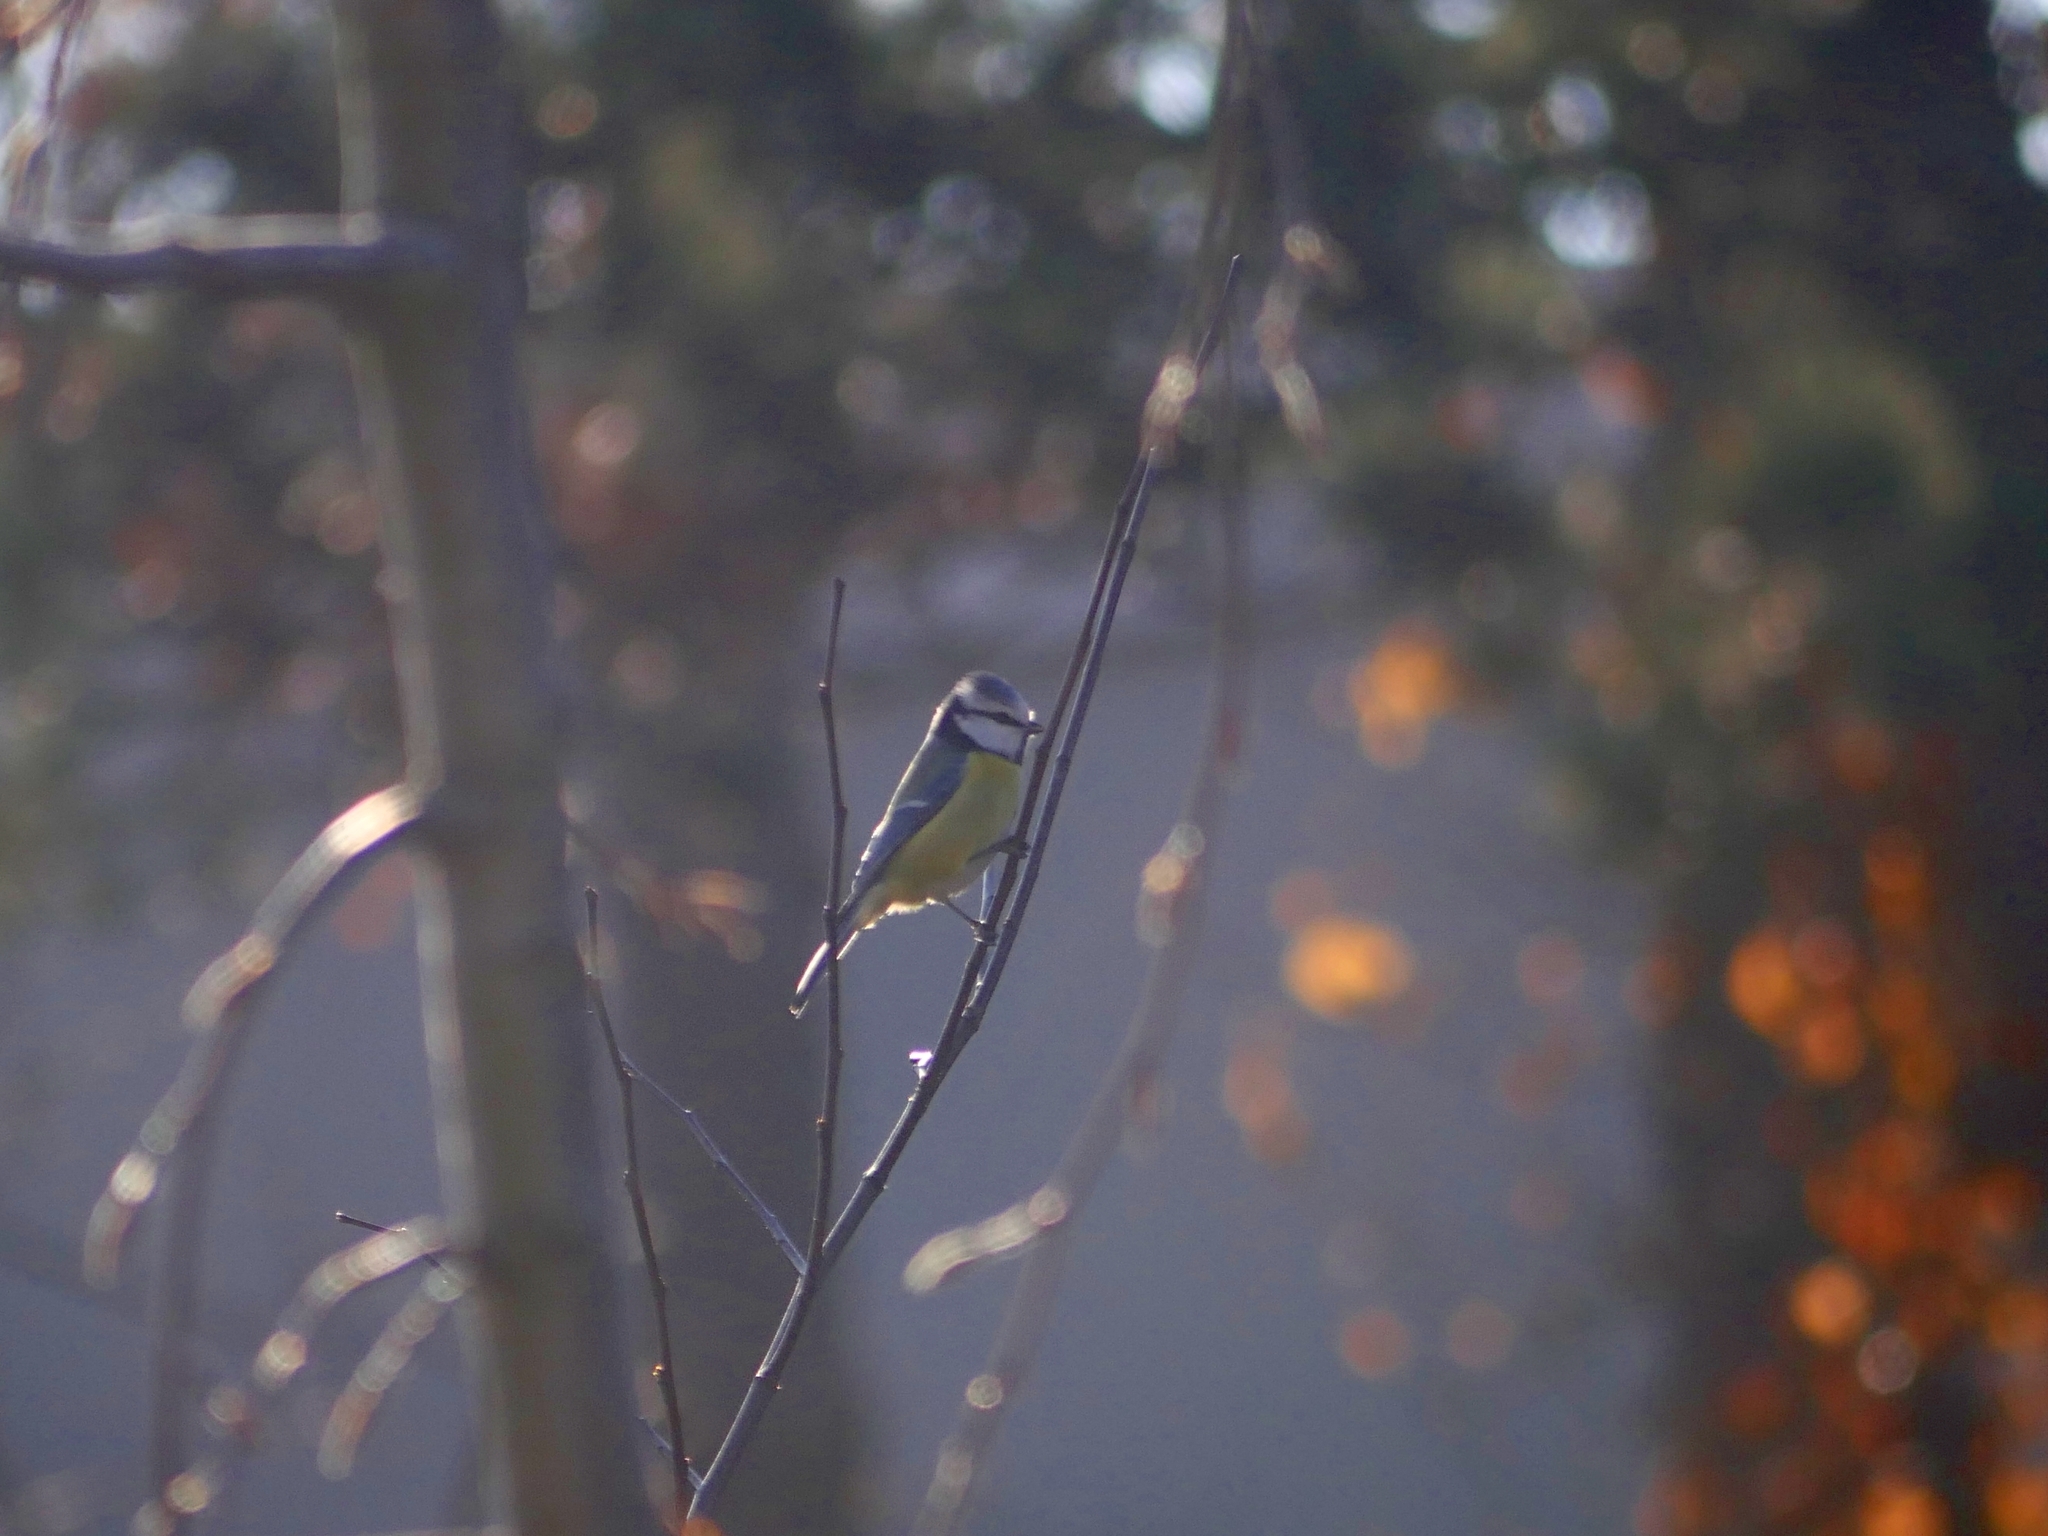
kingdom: Animalia
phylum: Chordata
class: Aves
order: Passeriformes
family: Paridae
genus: Cyanistes
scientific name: Cyanistes caeruleus
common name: Eurasian blue tit
